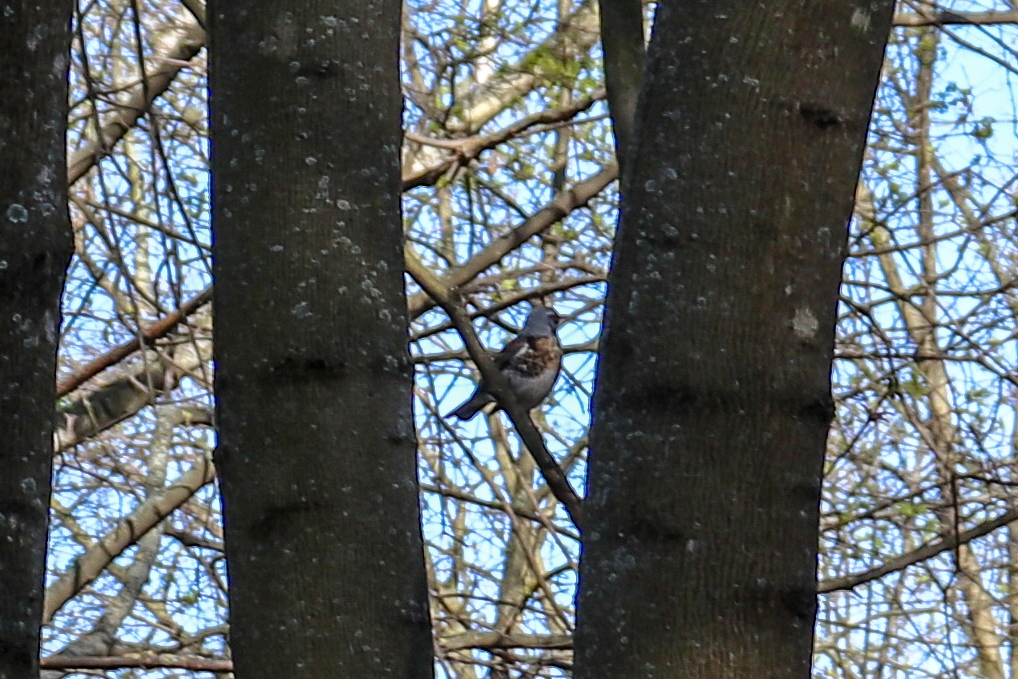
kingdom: Animalia
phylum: Chordata
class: Aves
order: Passeriformes
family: Turdidae
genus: Turdus
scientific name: Turdus pilaris
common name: Fieldfare
